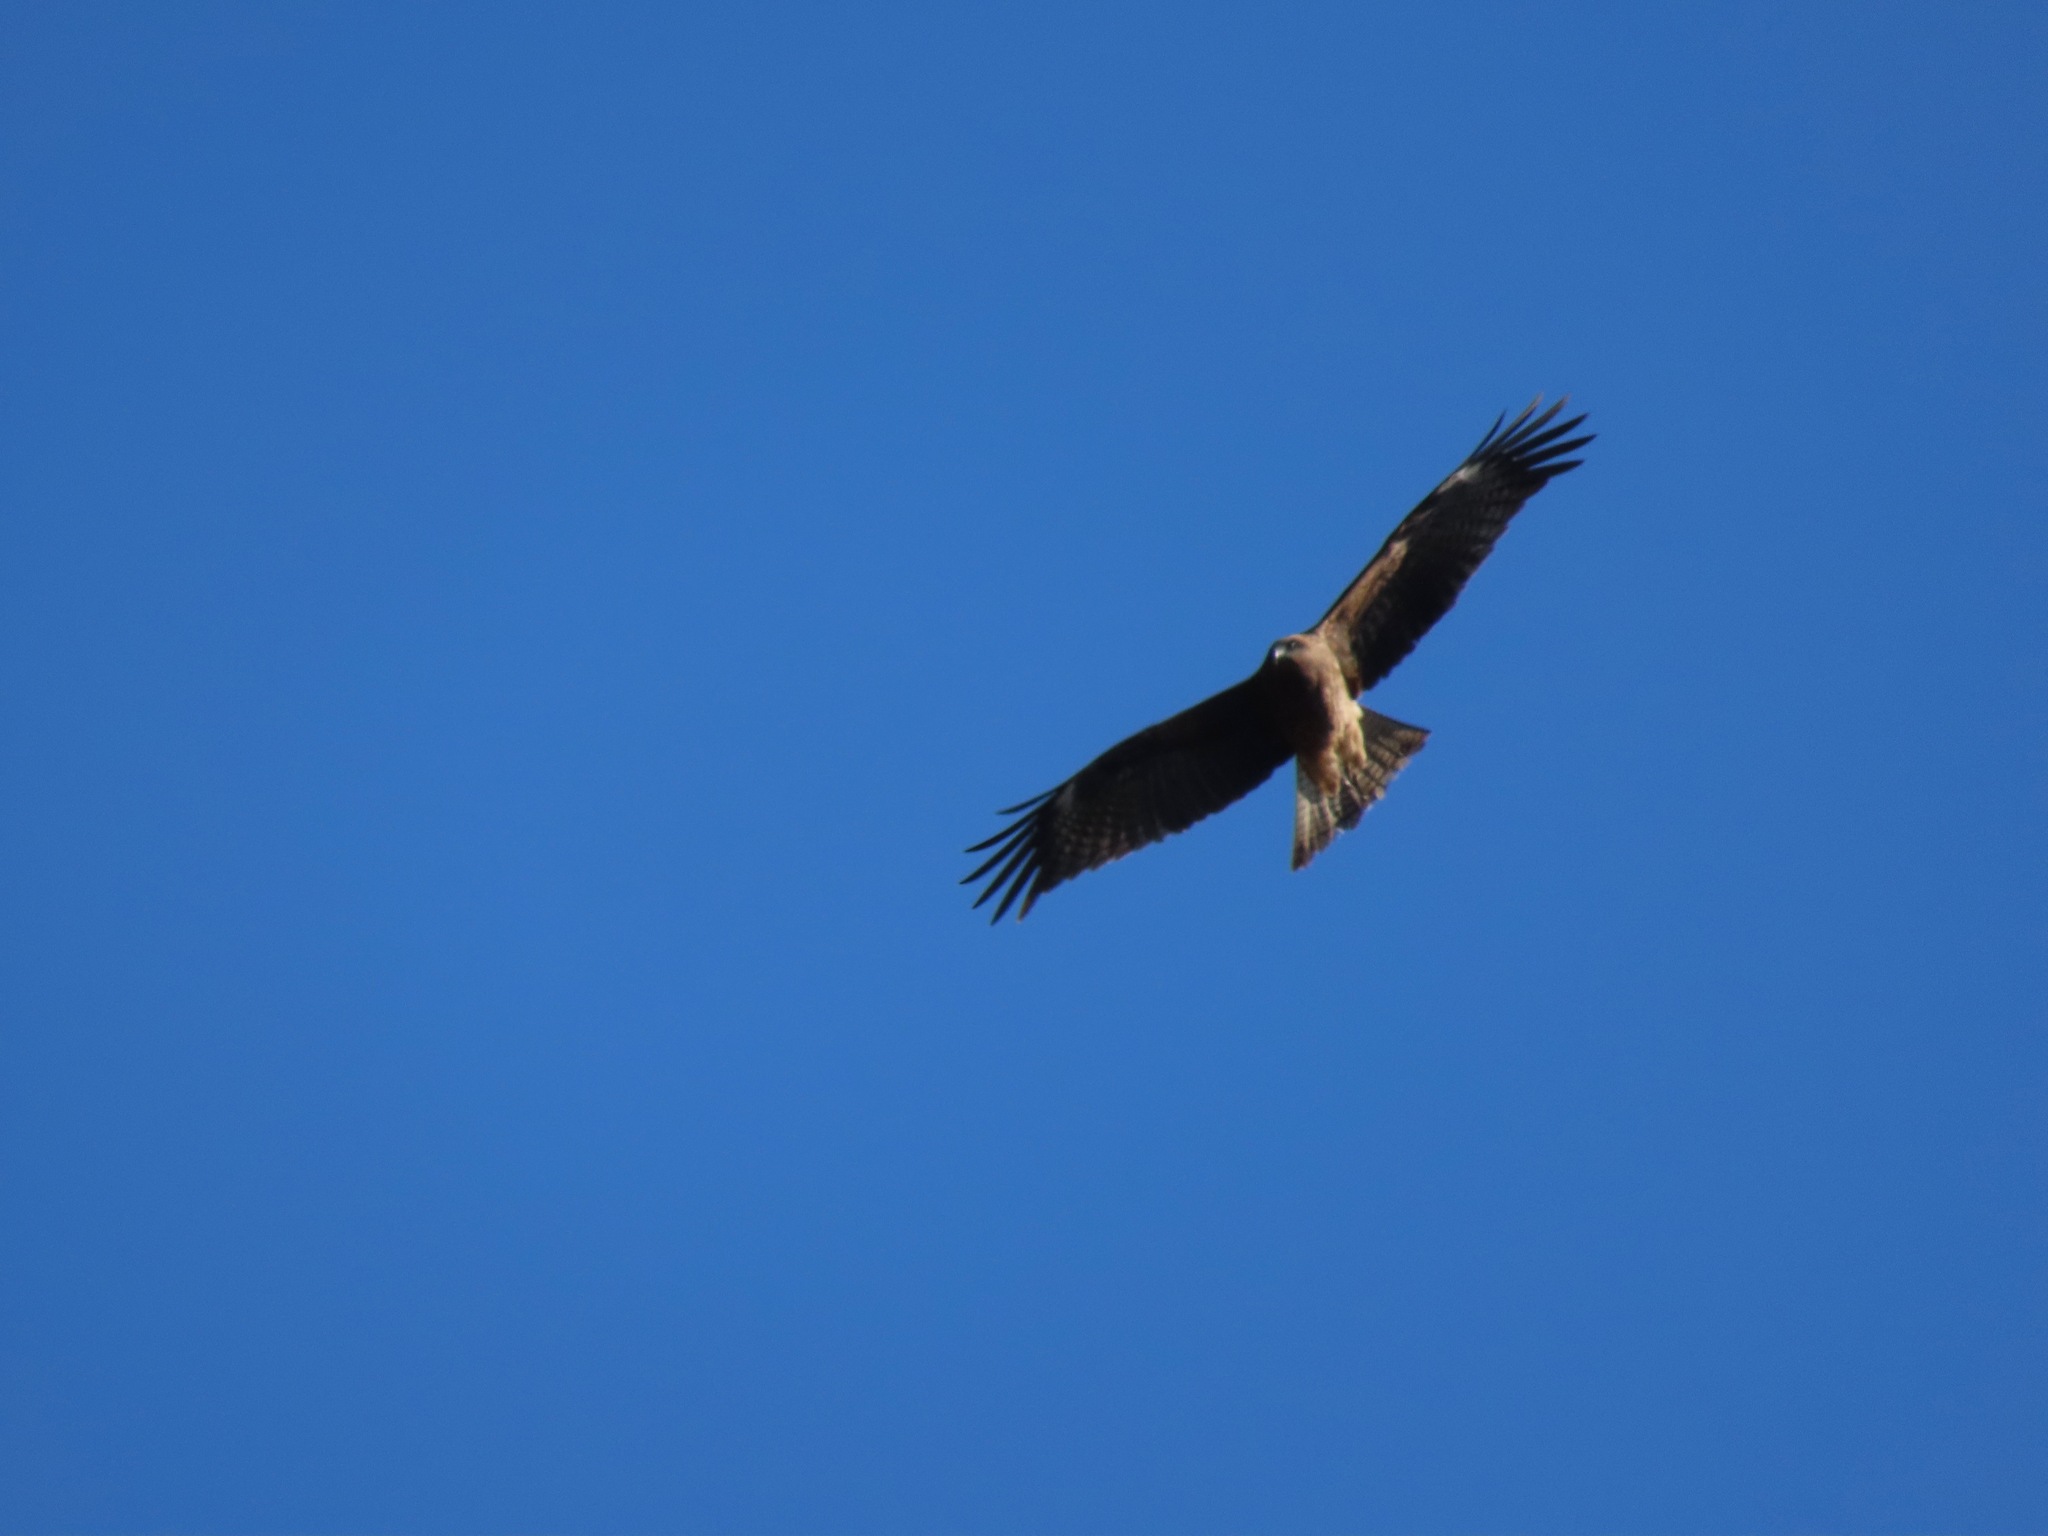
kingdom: Animalia
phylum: Chordata
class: Aves
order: Accipitriformes
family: Accipitridae
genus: Milvus
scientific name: Milvus migrans
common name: Black kite
